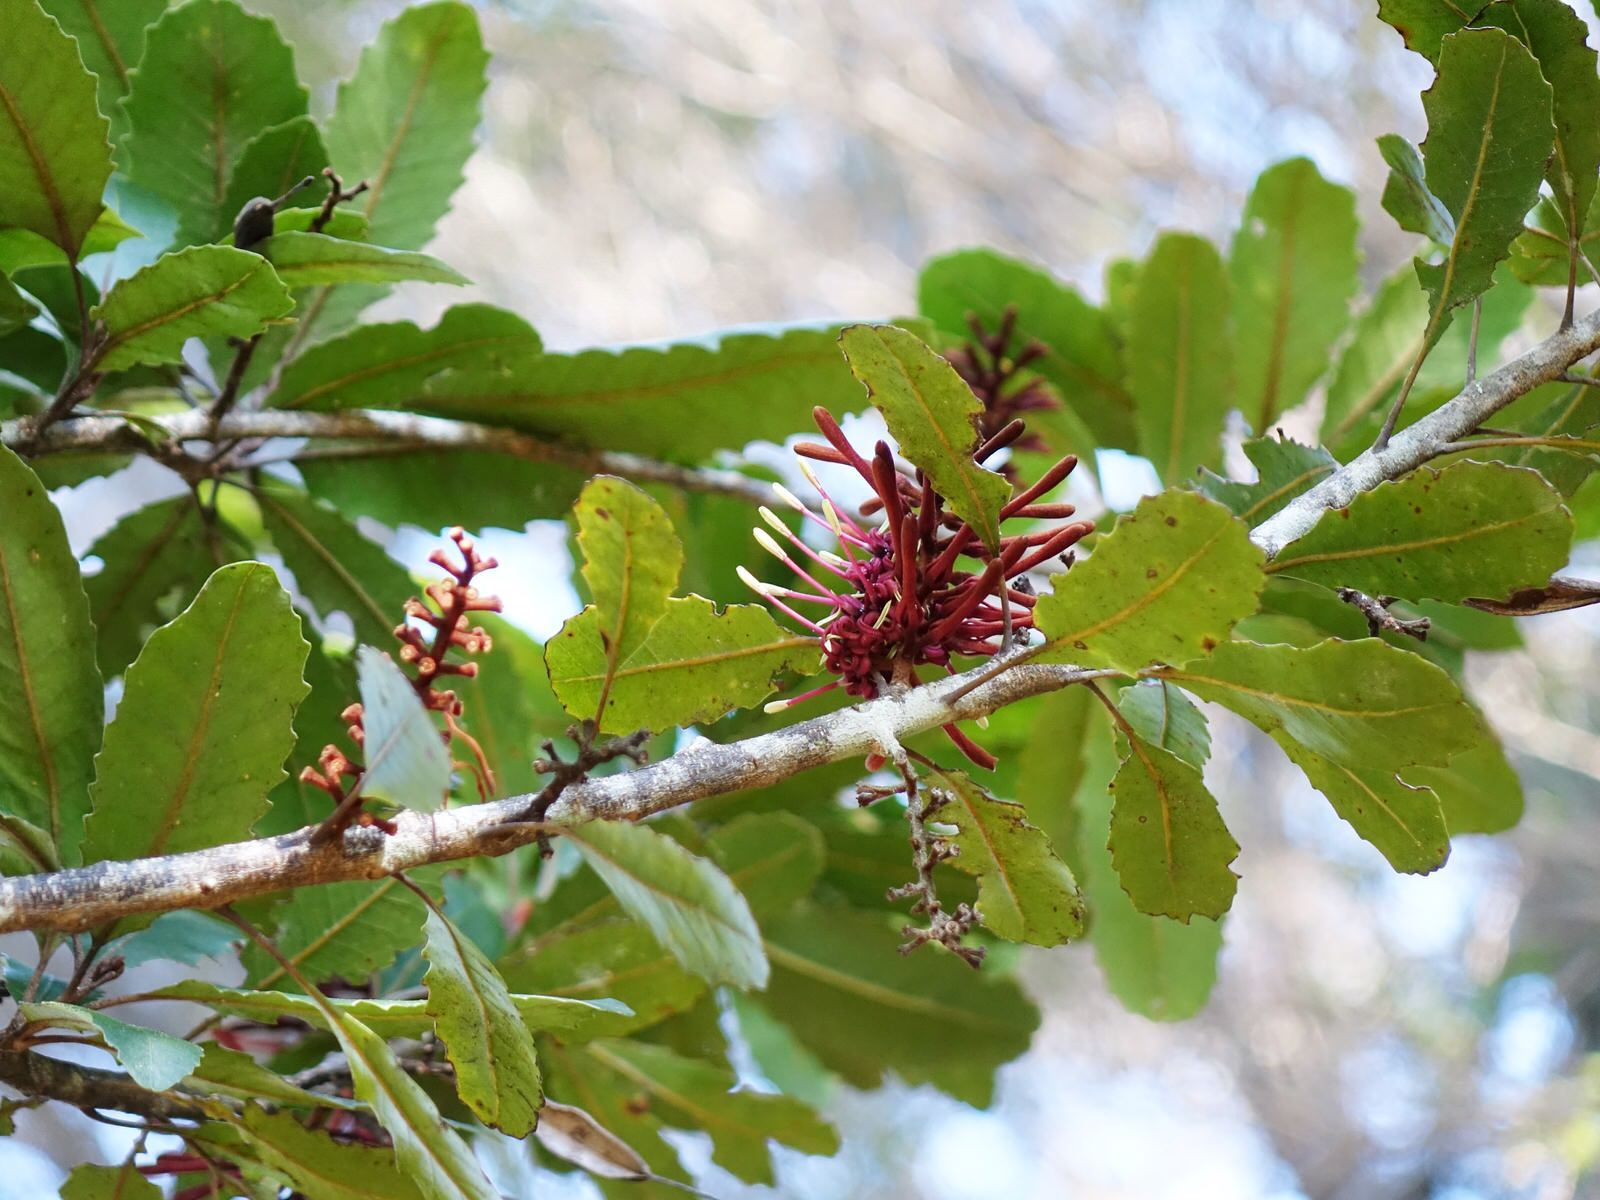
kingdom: Plantae
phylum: Tracheophyta
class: Magnoliopsida
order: Proteales
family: Proteaceae
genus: Knightia
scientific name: Knightia excelsa
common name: New zealand-honeysuckle
